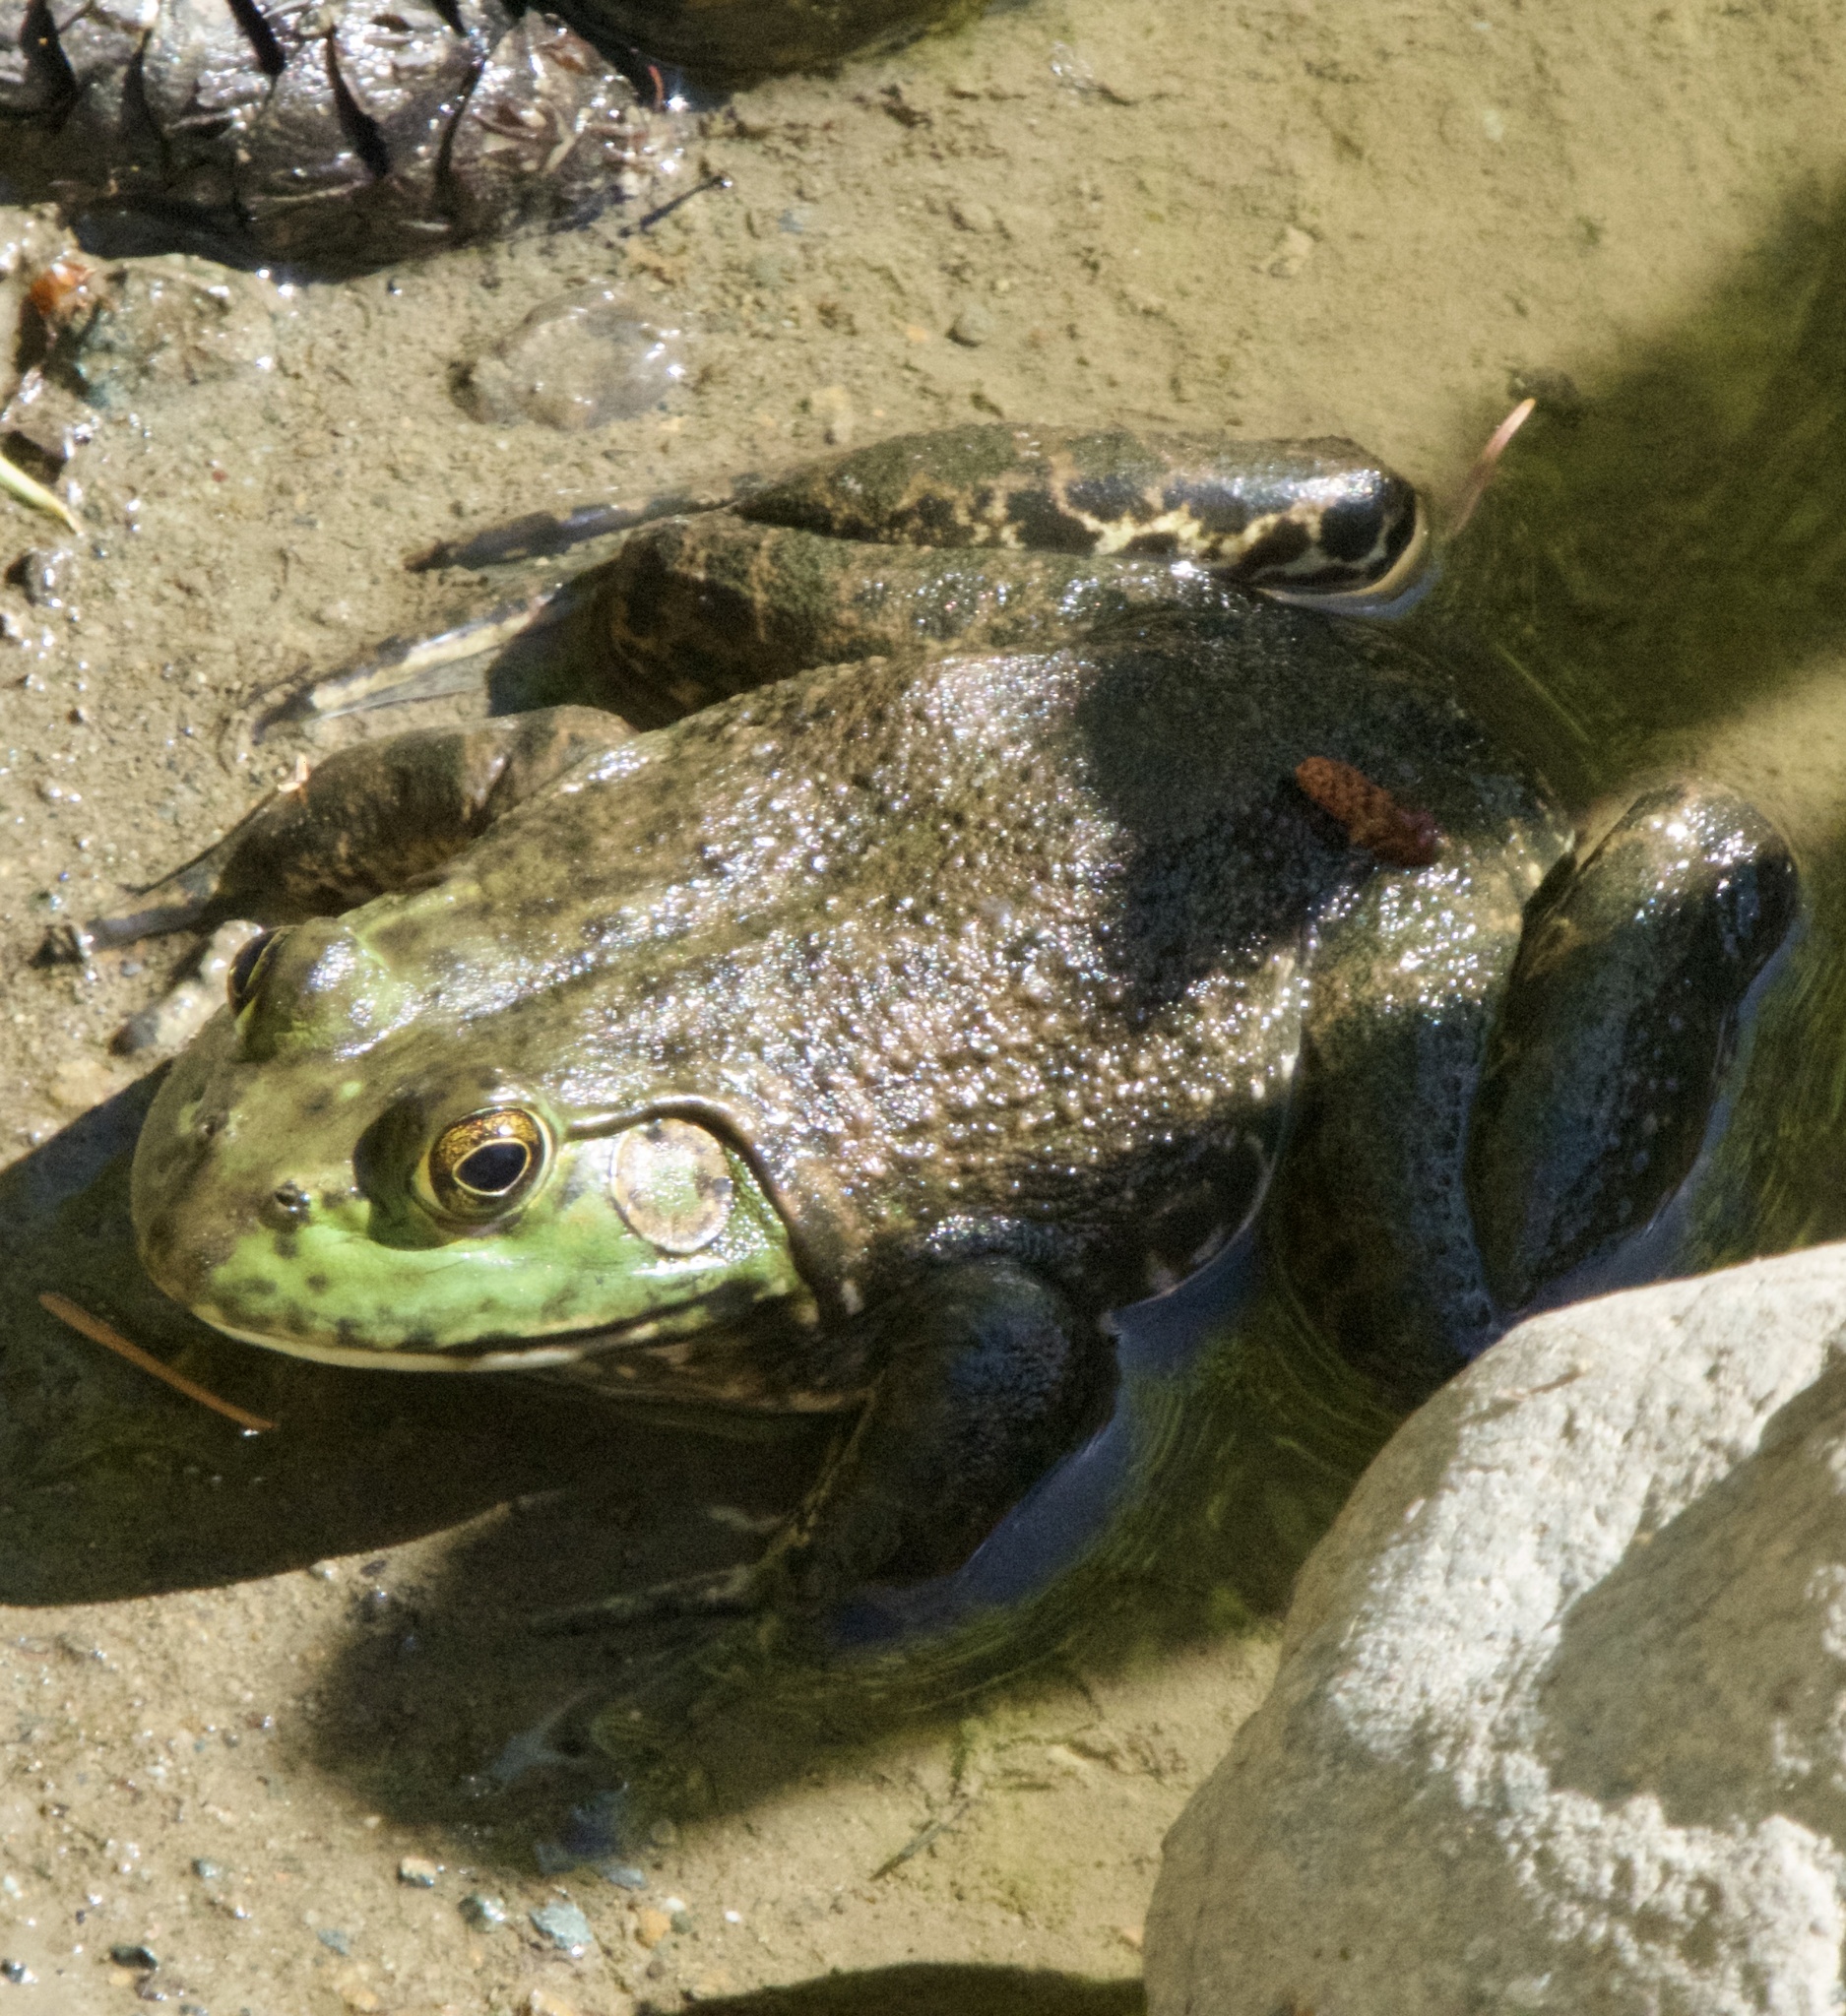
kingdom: Animalia
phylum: Chordata
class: Amphibia
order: Anura
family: Ranidae
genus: Lithobates
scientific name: Lithobates catesbeianus
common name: American bullfrog
